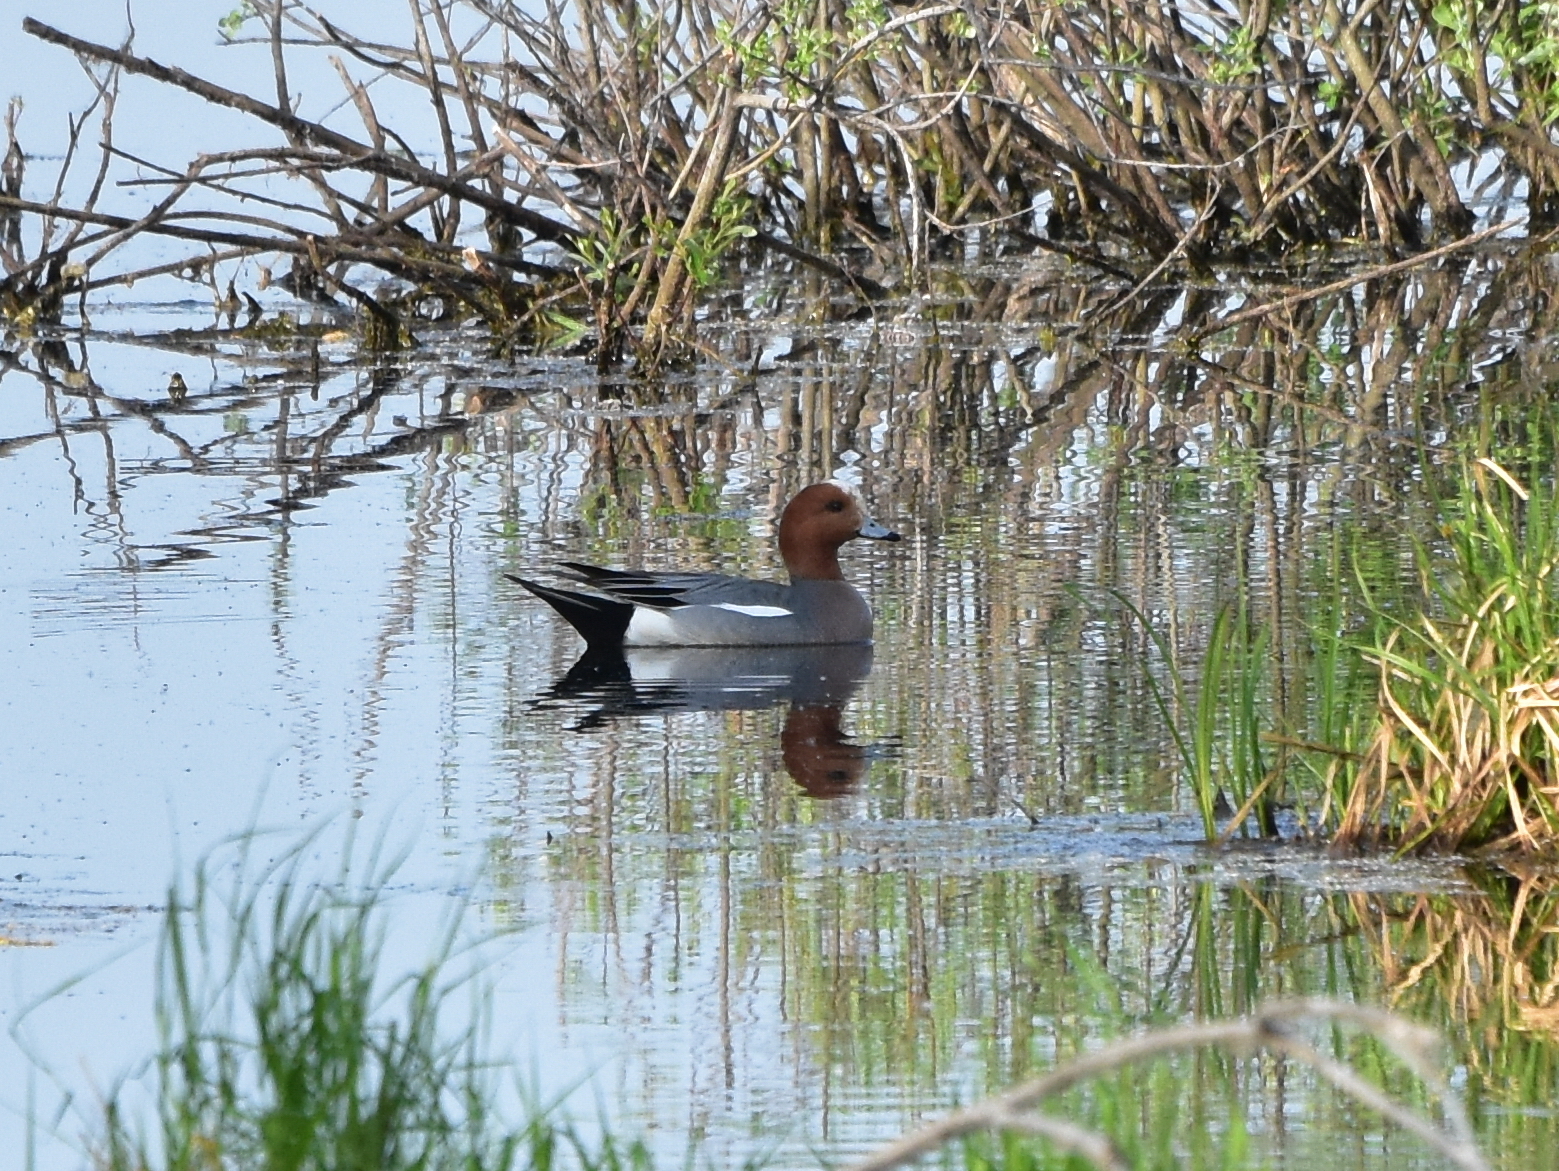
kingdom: Animalia
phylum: Chordata
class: Aves
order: Anseriformes
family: Anatidae
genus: Mareca
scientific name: Mareca penelope
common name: Eurasian wigeon
